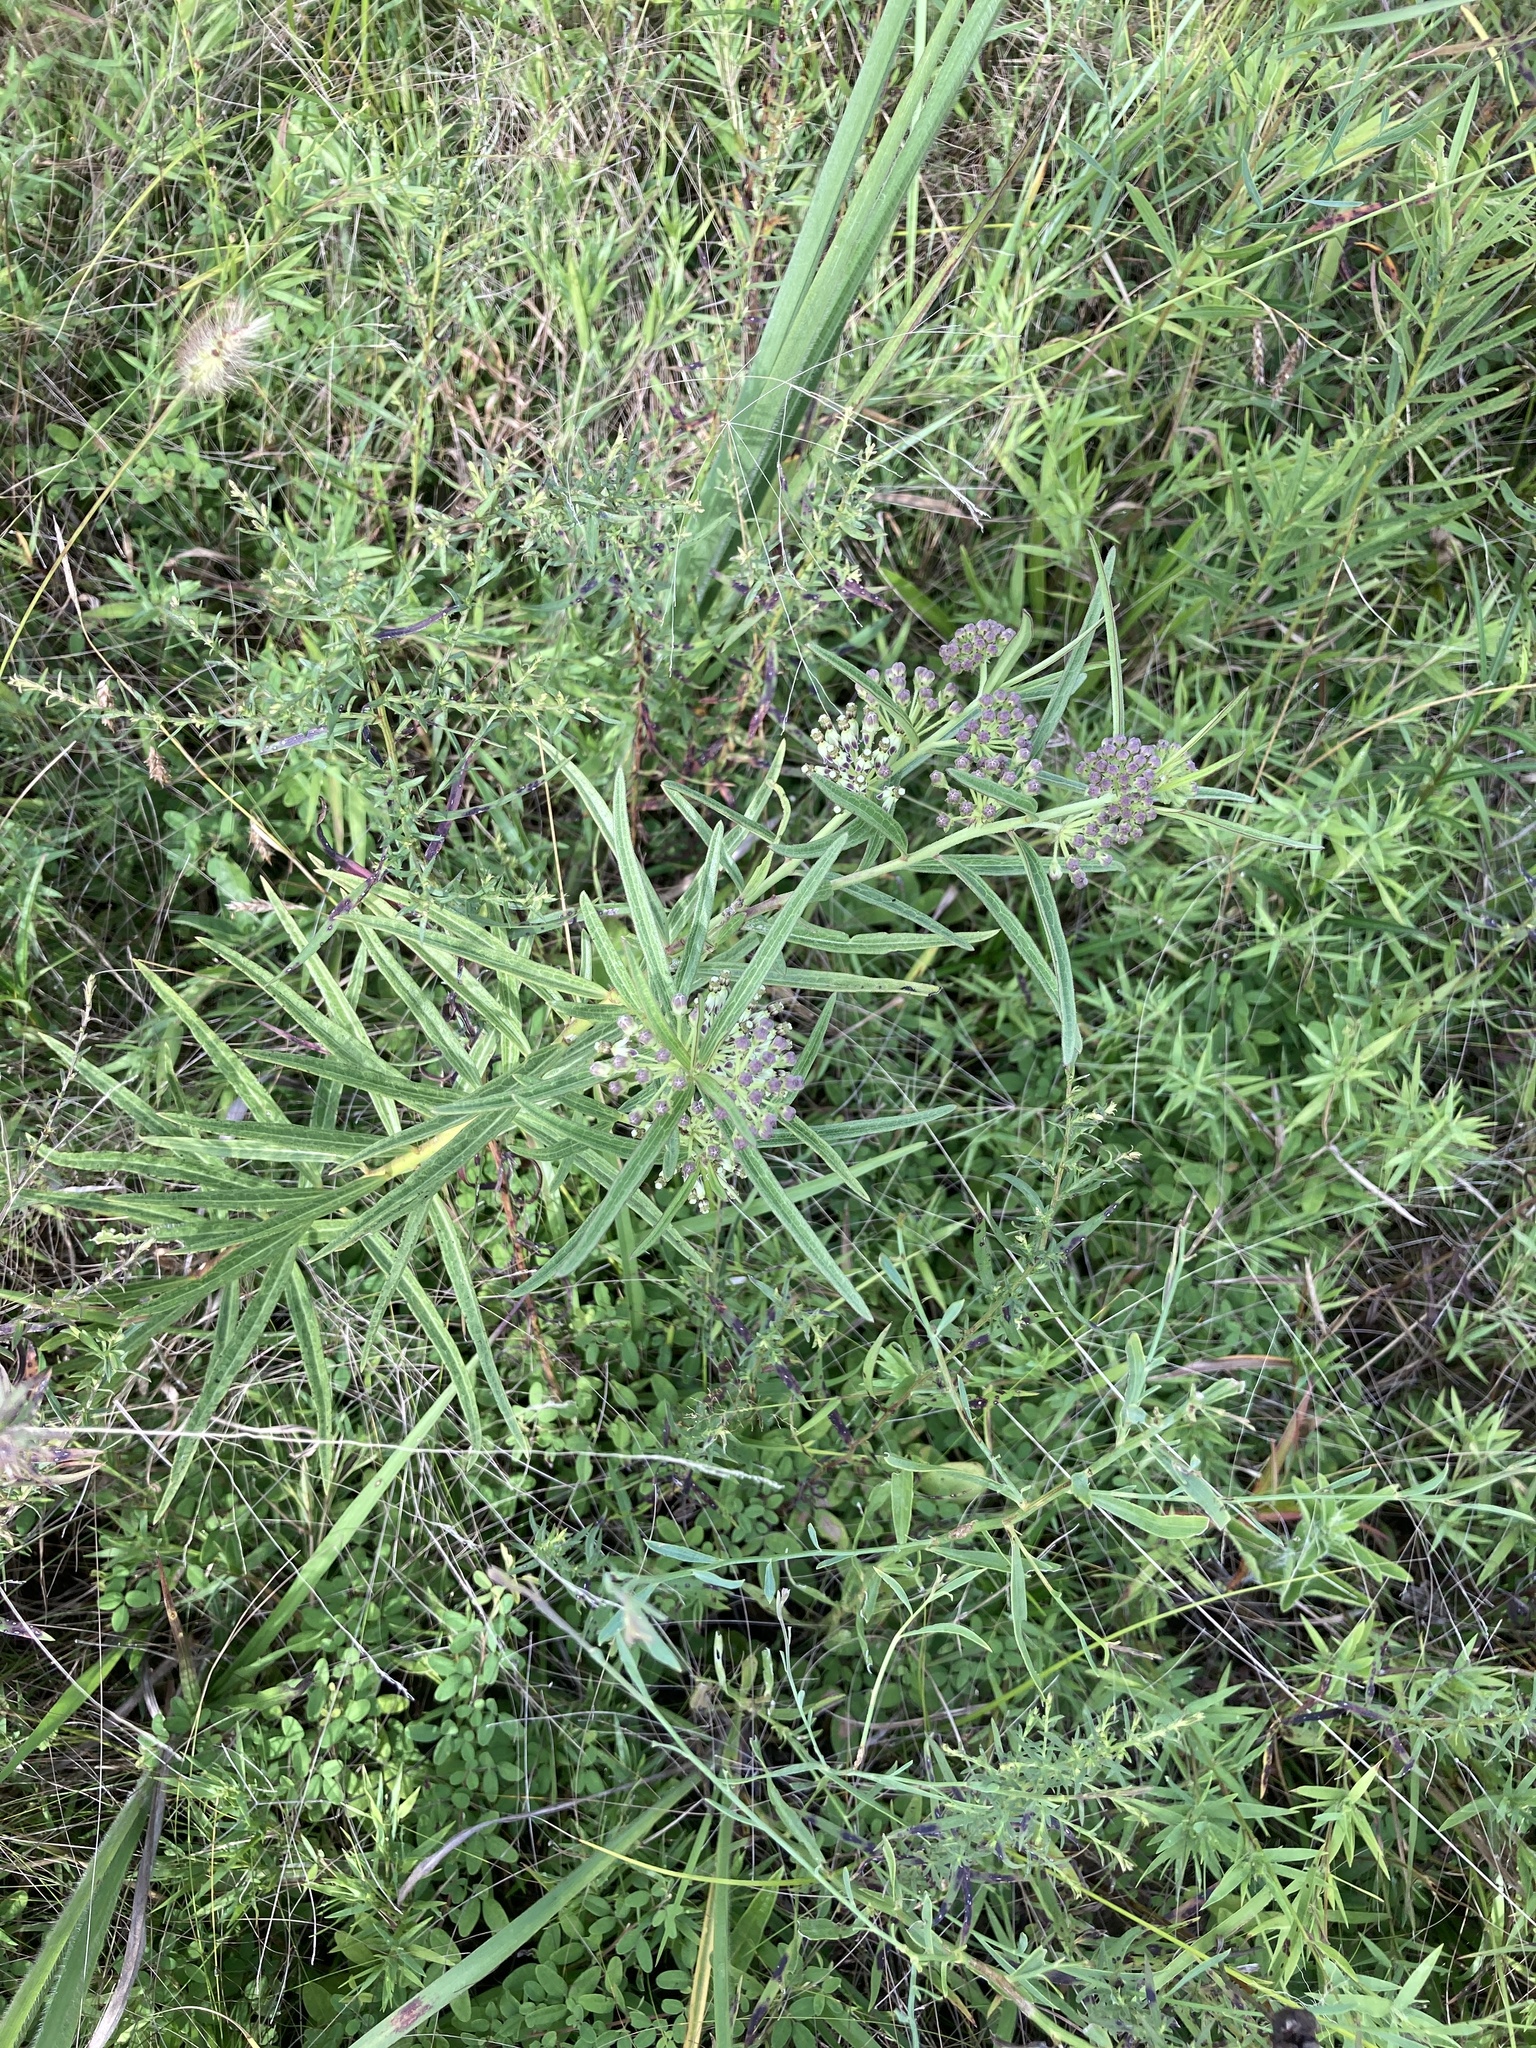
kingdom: Plantae
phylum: Tracheophyta
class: Magnoliopsida
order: Gentianales
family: Apocynaceae
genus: Asclepias
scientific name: Asclepias hirtella
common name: Prairie milkweed
